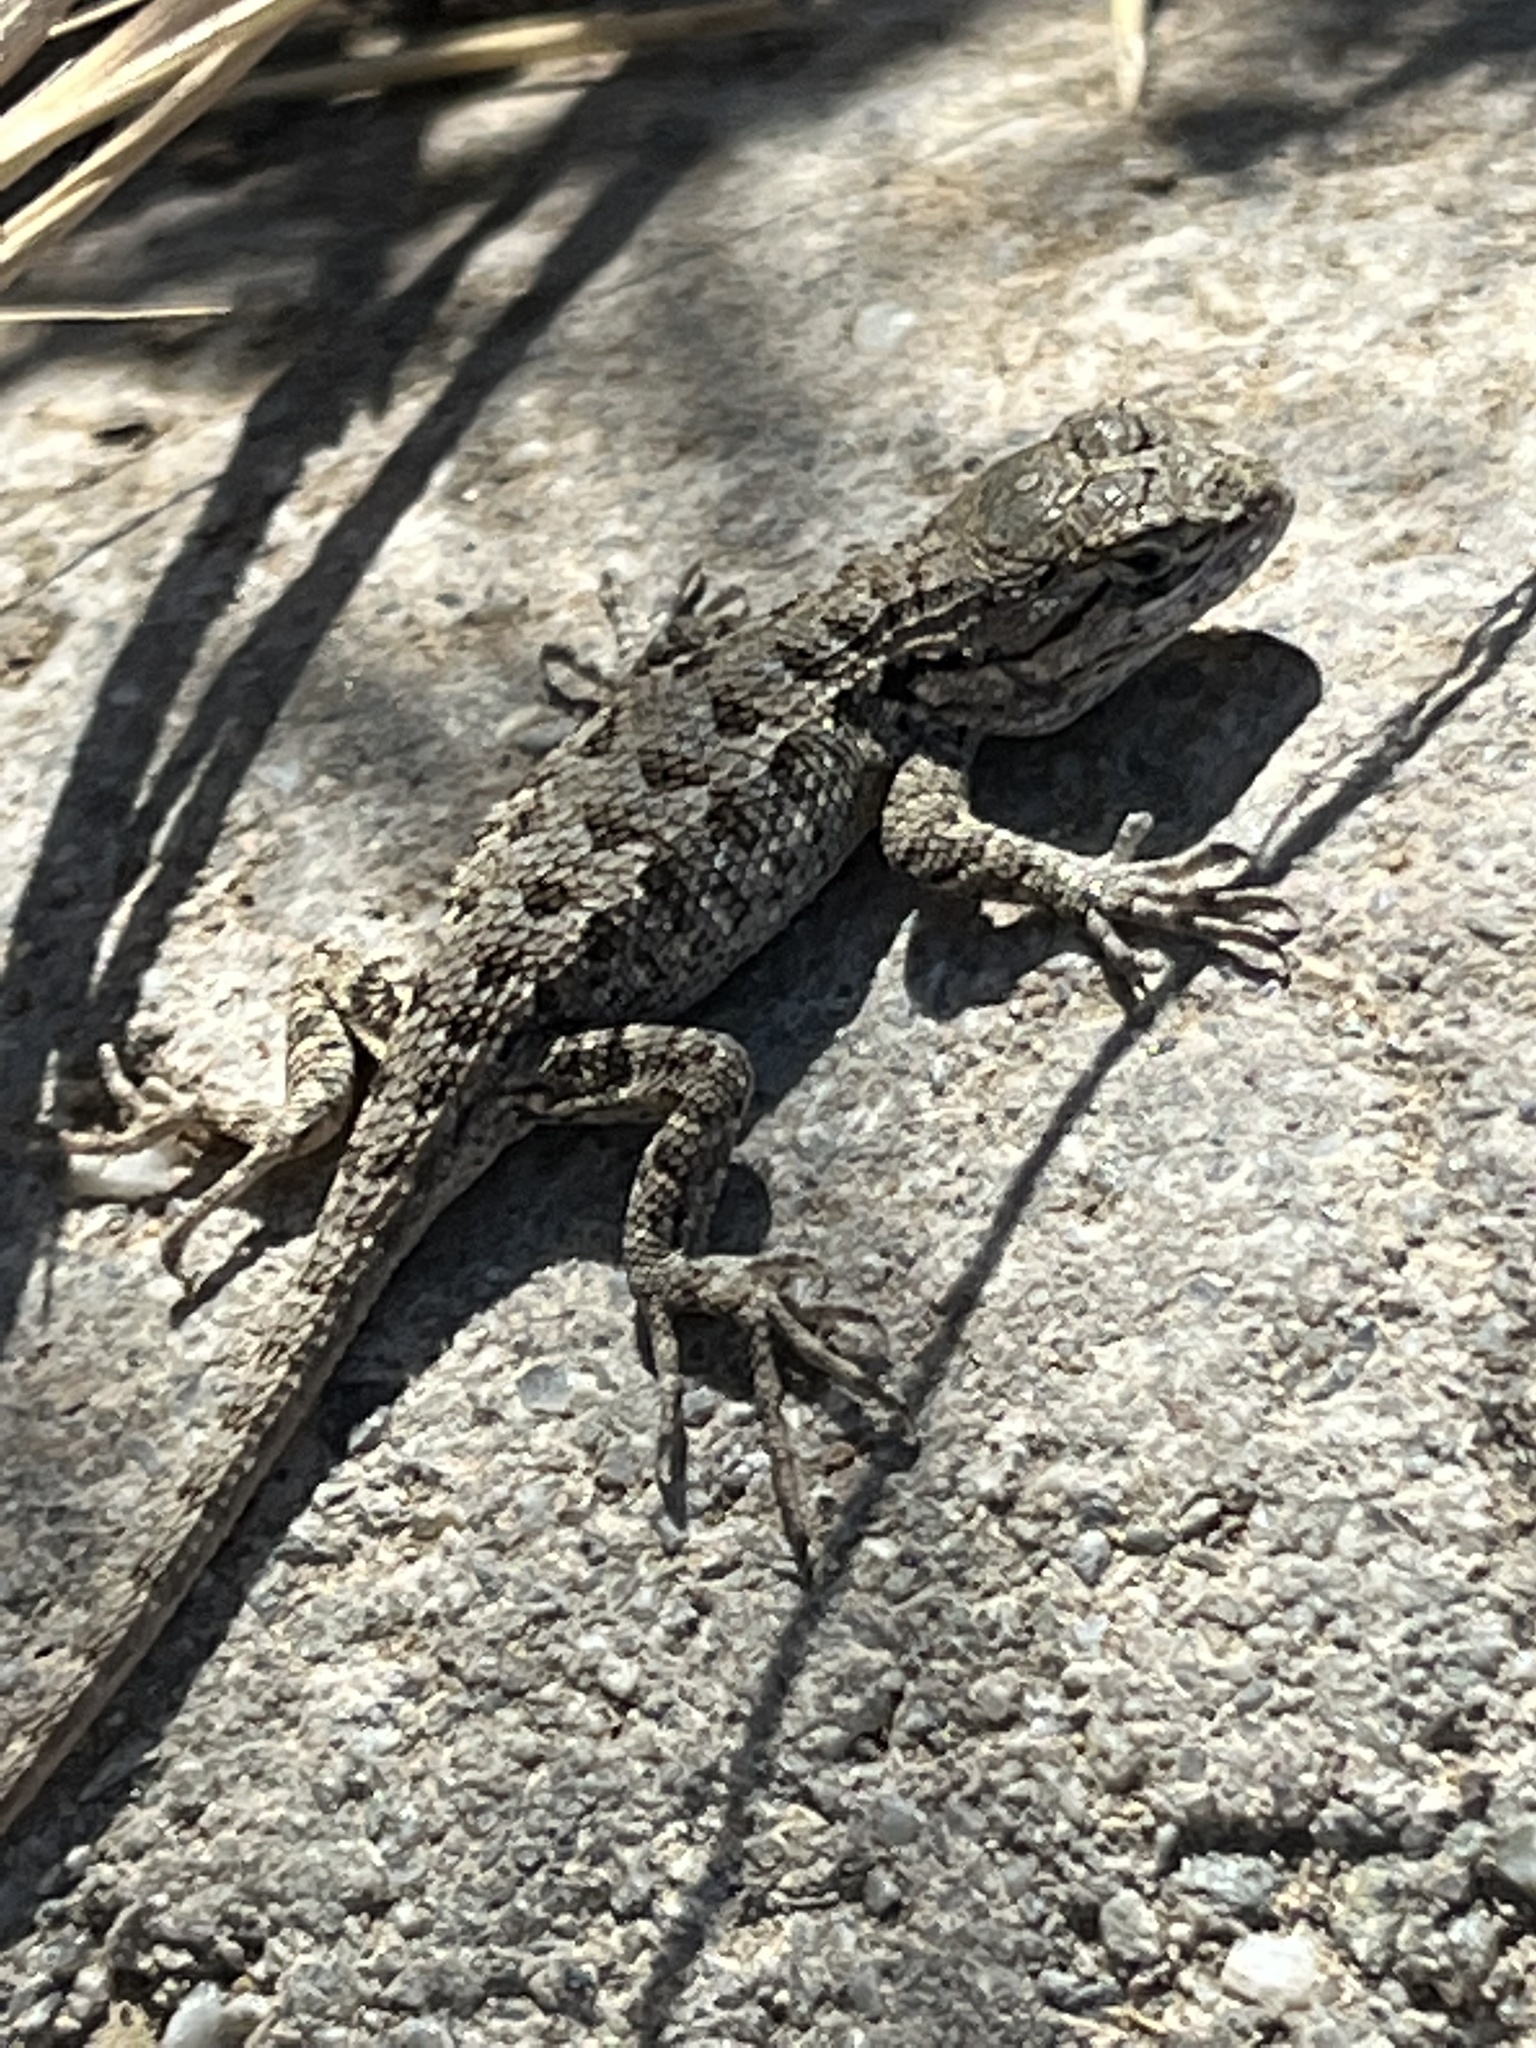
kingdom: Animalia
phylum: Chordata
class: Squamata
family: Phrynosomatidae
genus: Sceloporus
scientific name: Sceloporus occidentalis
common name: Western fence lizard
